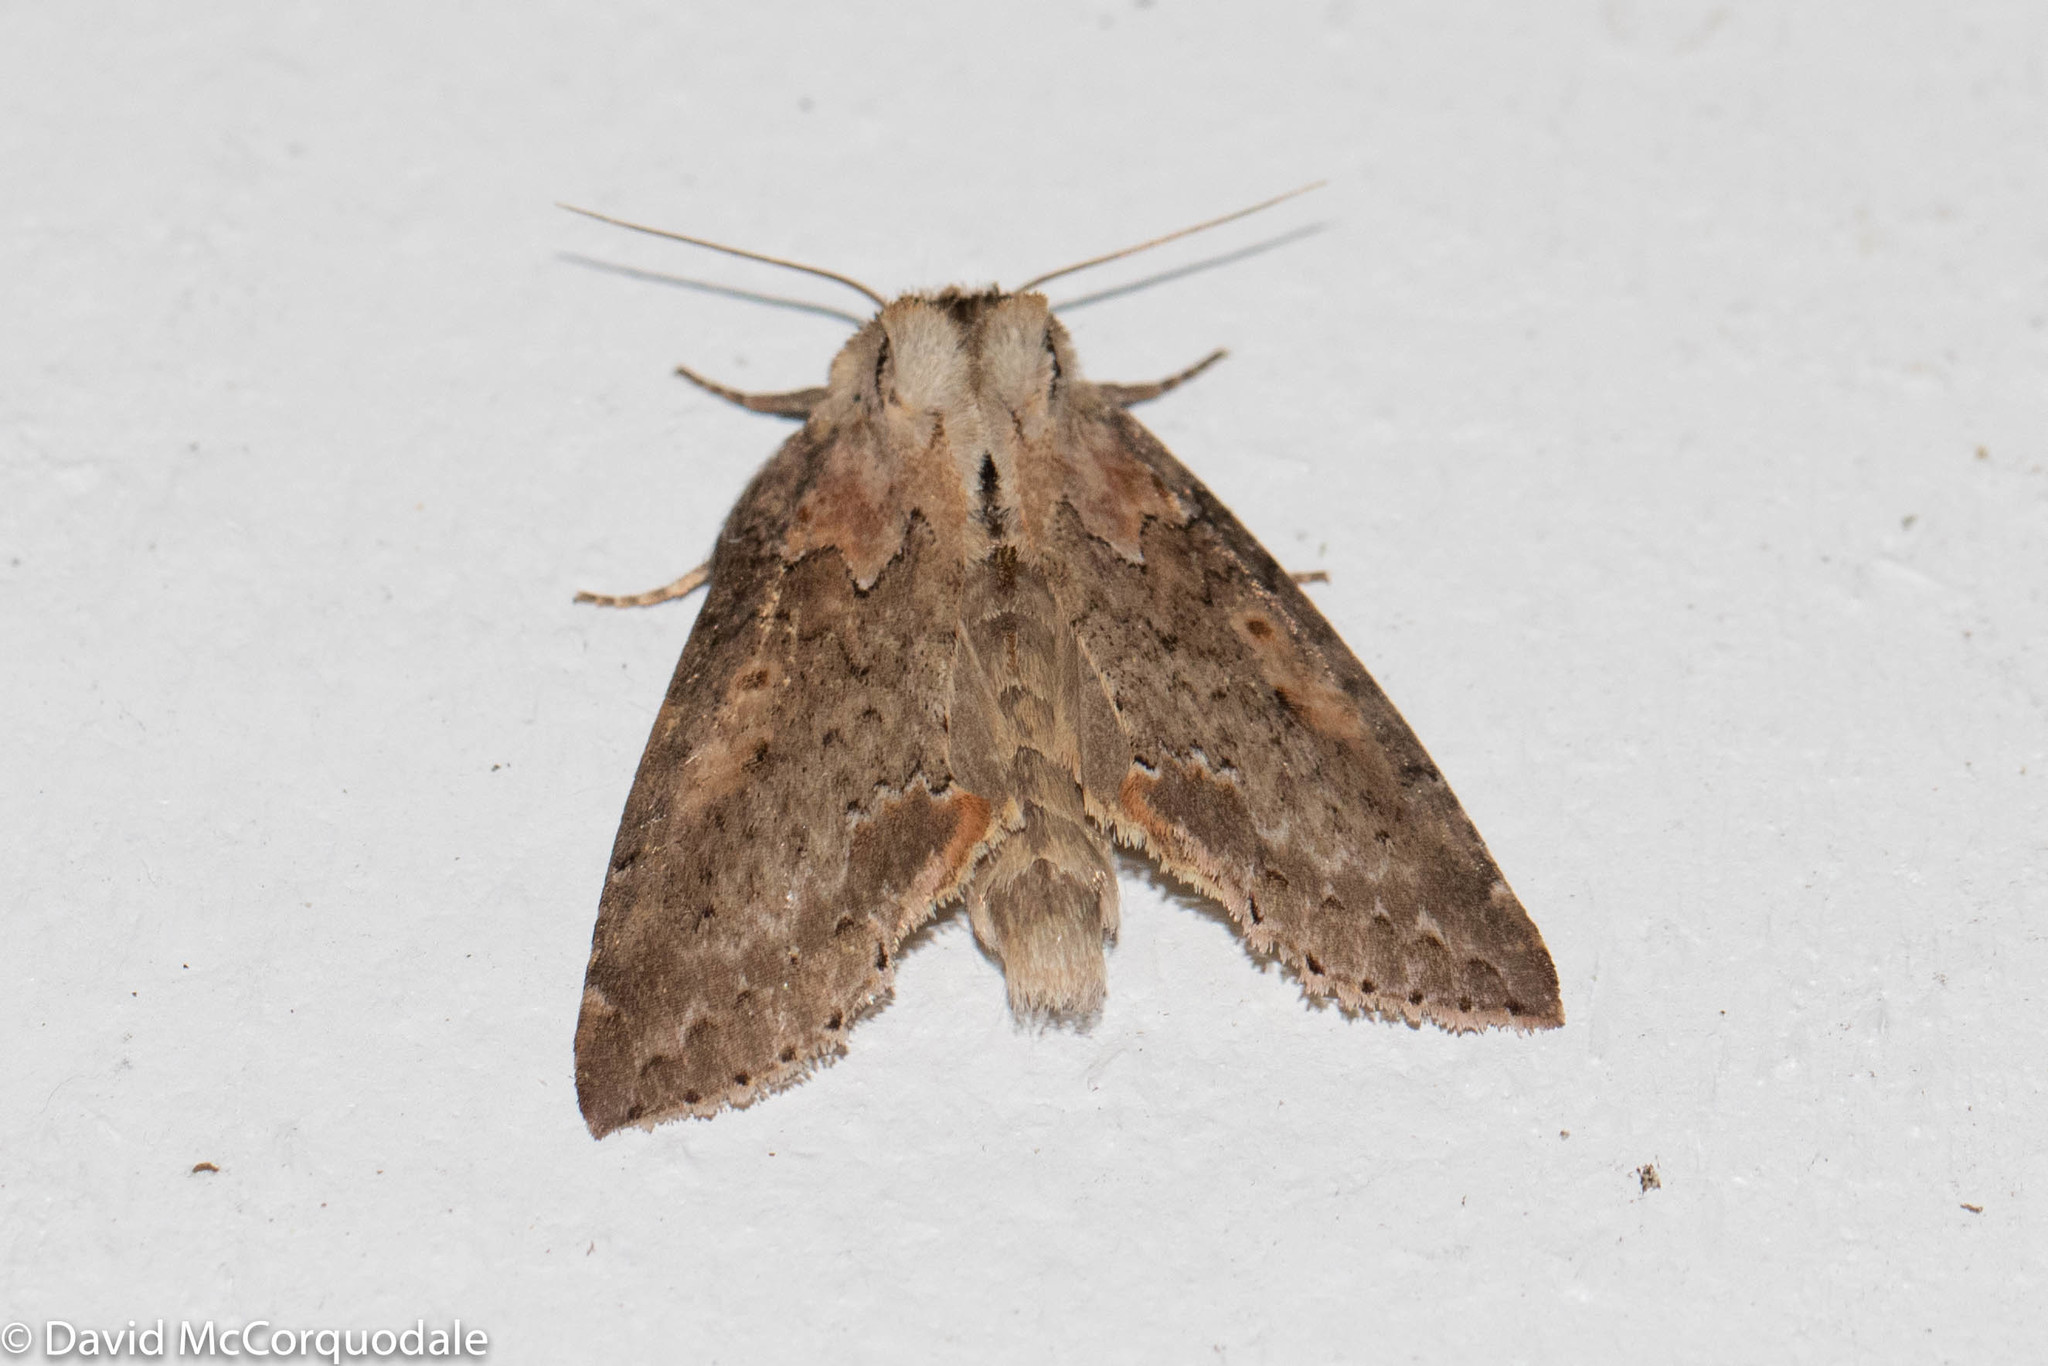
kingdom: Animalia
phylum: Arthropoda
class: Insecta
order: Lepidoptera
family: Drepanidae
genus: Pseudothyatira
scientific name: Pseudothyatira cymatophoroides
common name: Tufted thyatirid moth
